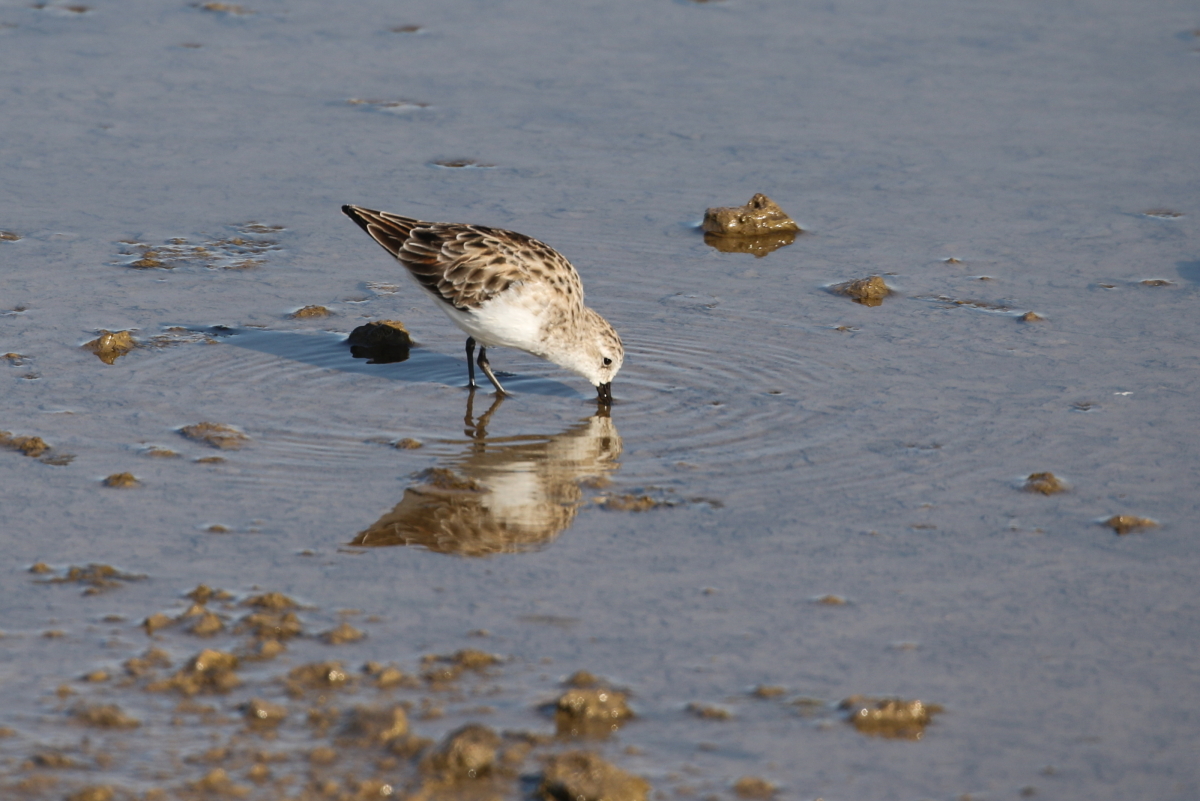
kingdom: Animalia
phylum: Chordata
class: Aves
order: Charadriiformes
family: Scolopacidae
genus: Calidris
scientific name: Calidris minuta
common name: Little stint
